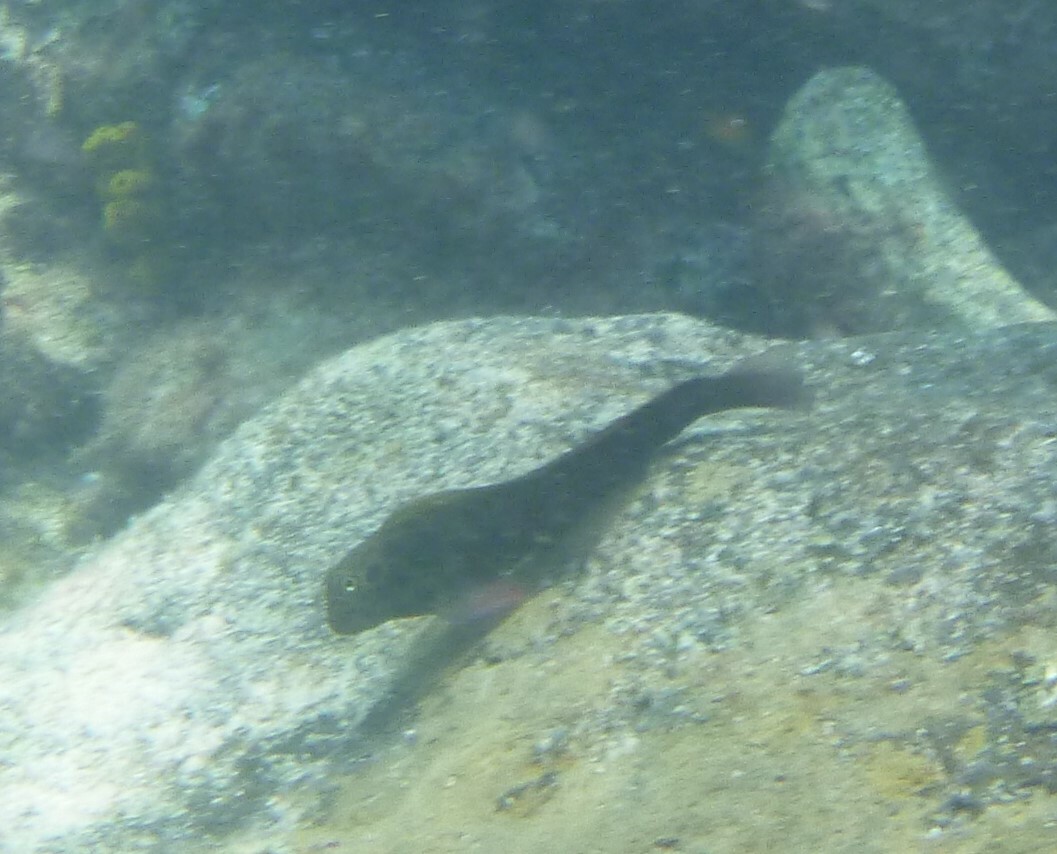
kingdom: Animalia
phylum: Chordata
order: Perciformes
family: Blenniidae
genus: Ophioblennius
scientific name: Ophioblennius atlanticus
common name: Redlip blenny
